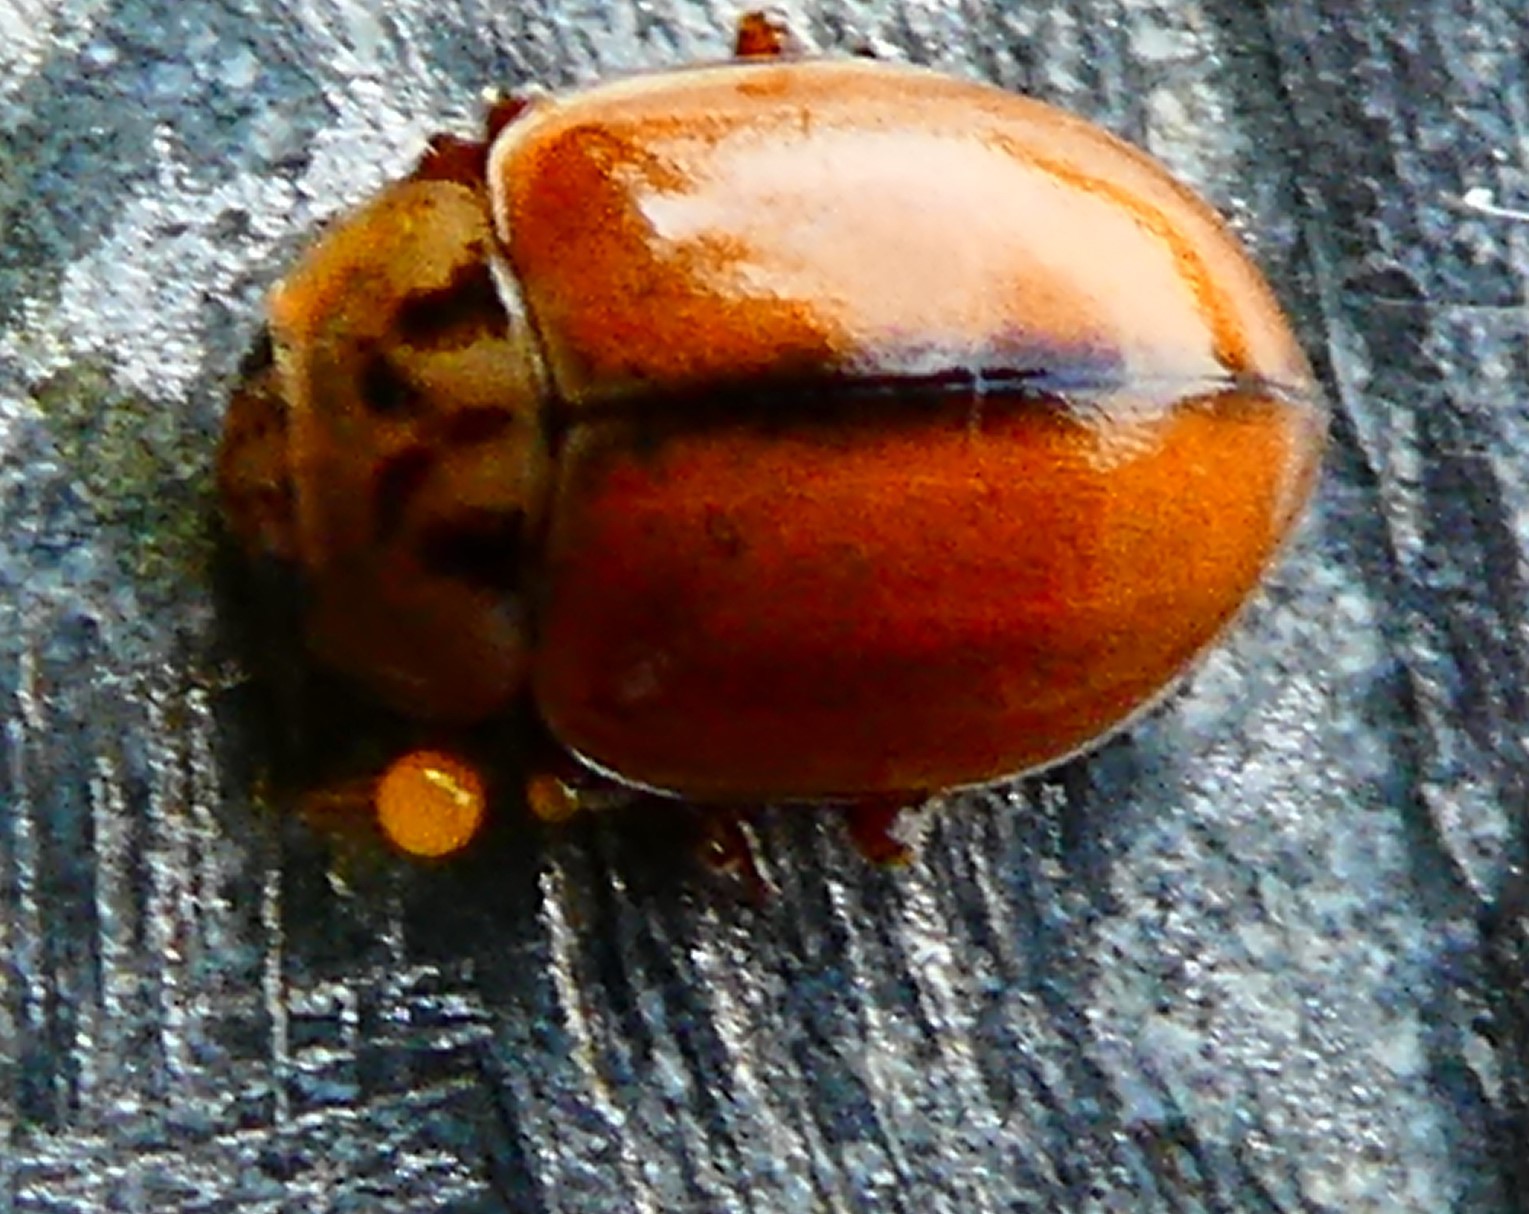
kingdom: Animalia
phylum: Arthropoda
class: Insecta
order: Coleoptera
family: Coccinellidae
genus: Aphidecta
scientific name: Aphidecta obliterata
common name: Larch ladybird
